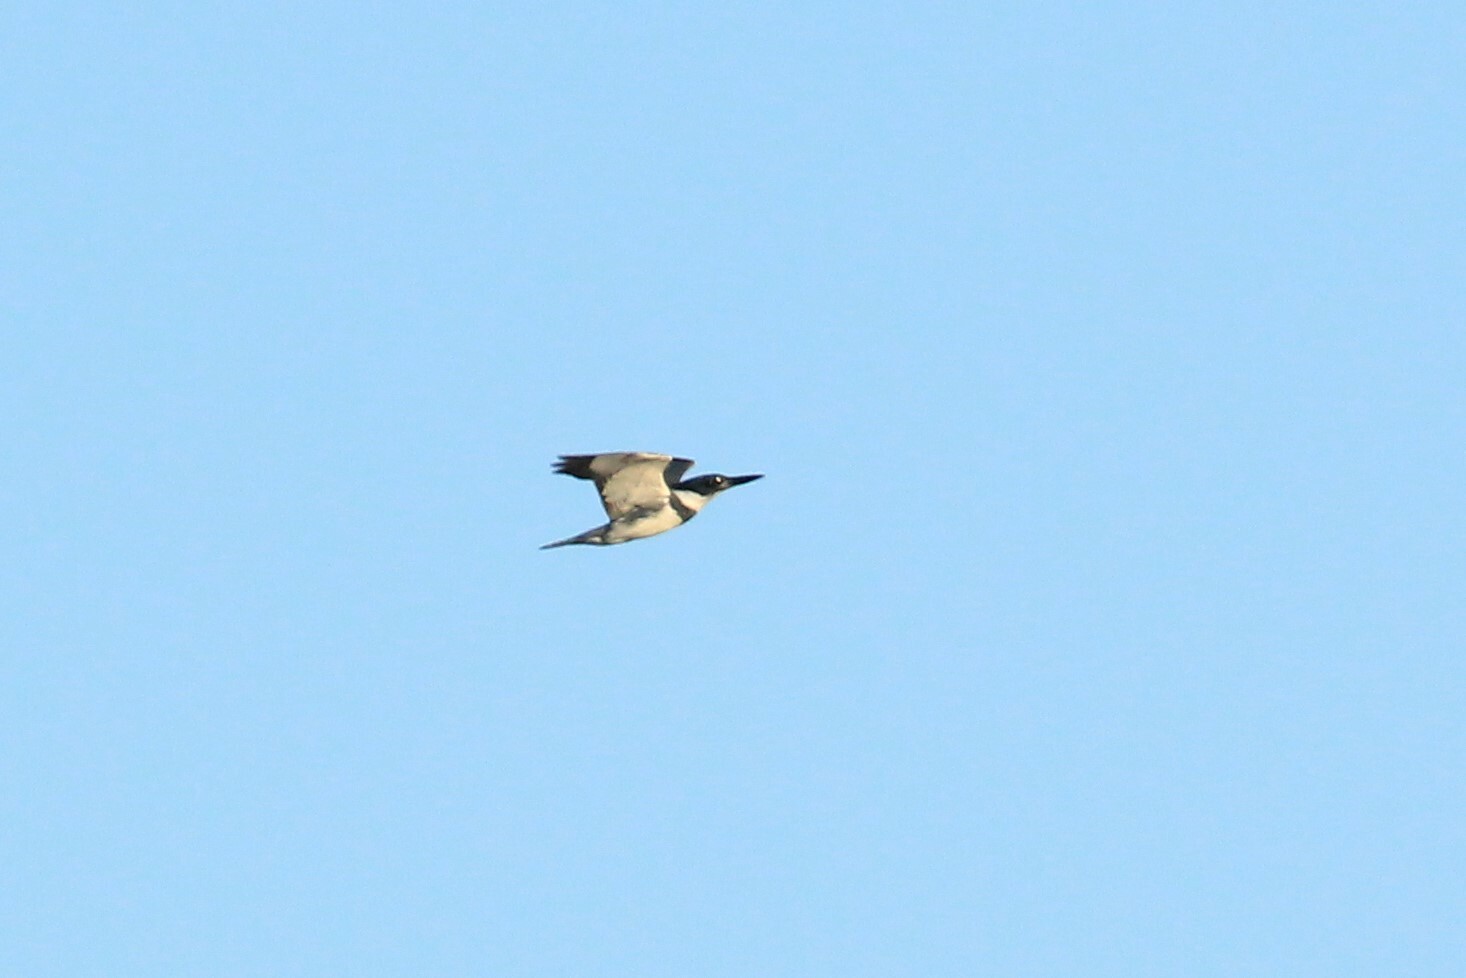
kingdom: Animalia
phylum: Chordata
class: Aves
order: Coraciiformes
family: Alcedinidae
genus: Megaceryle
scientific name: Megaceryle alcyon
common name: Belted kingfisher
